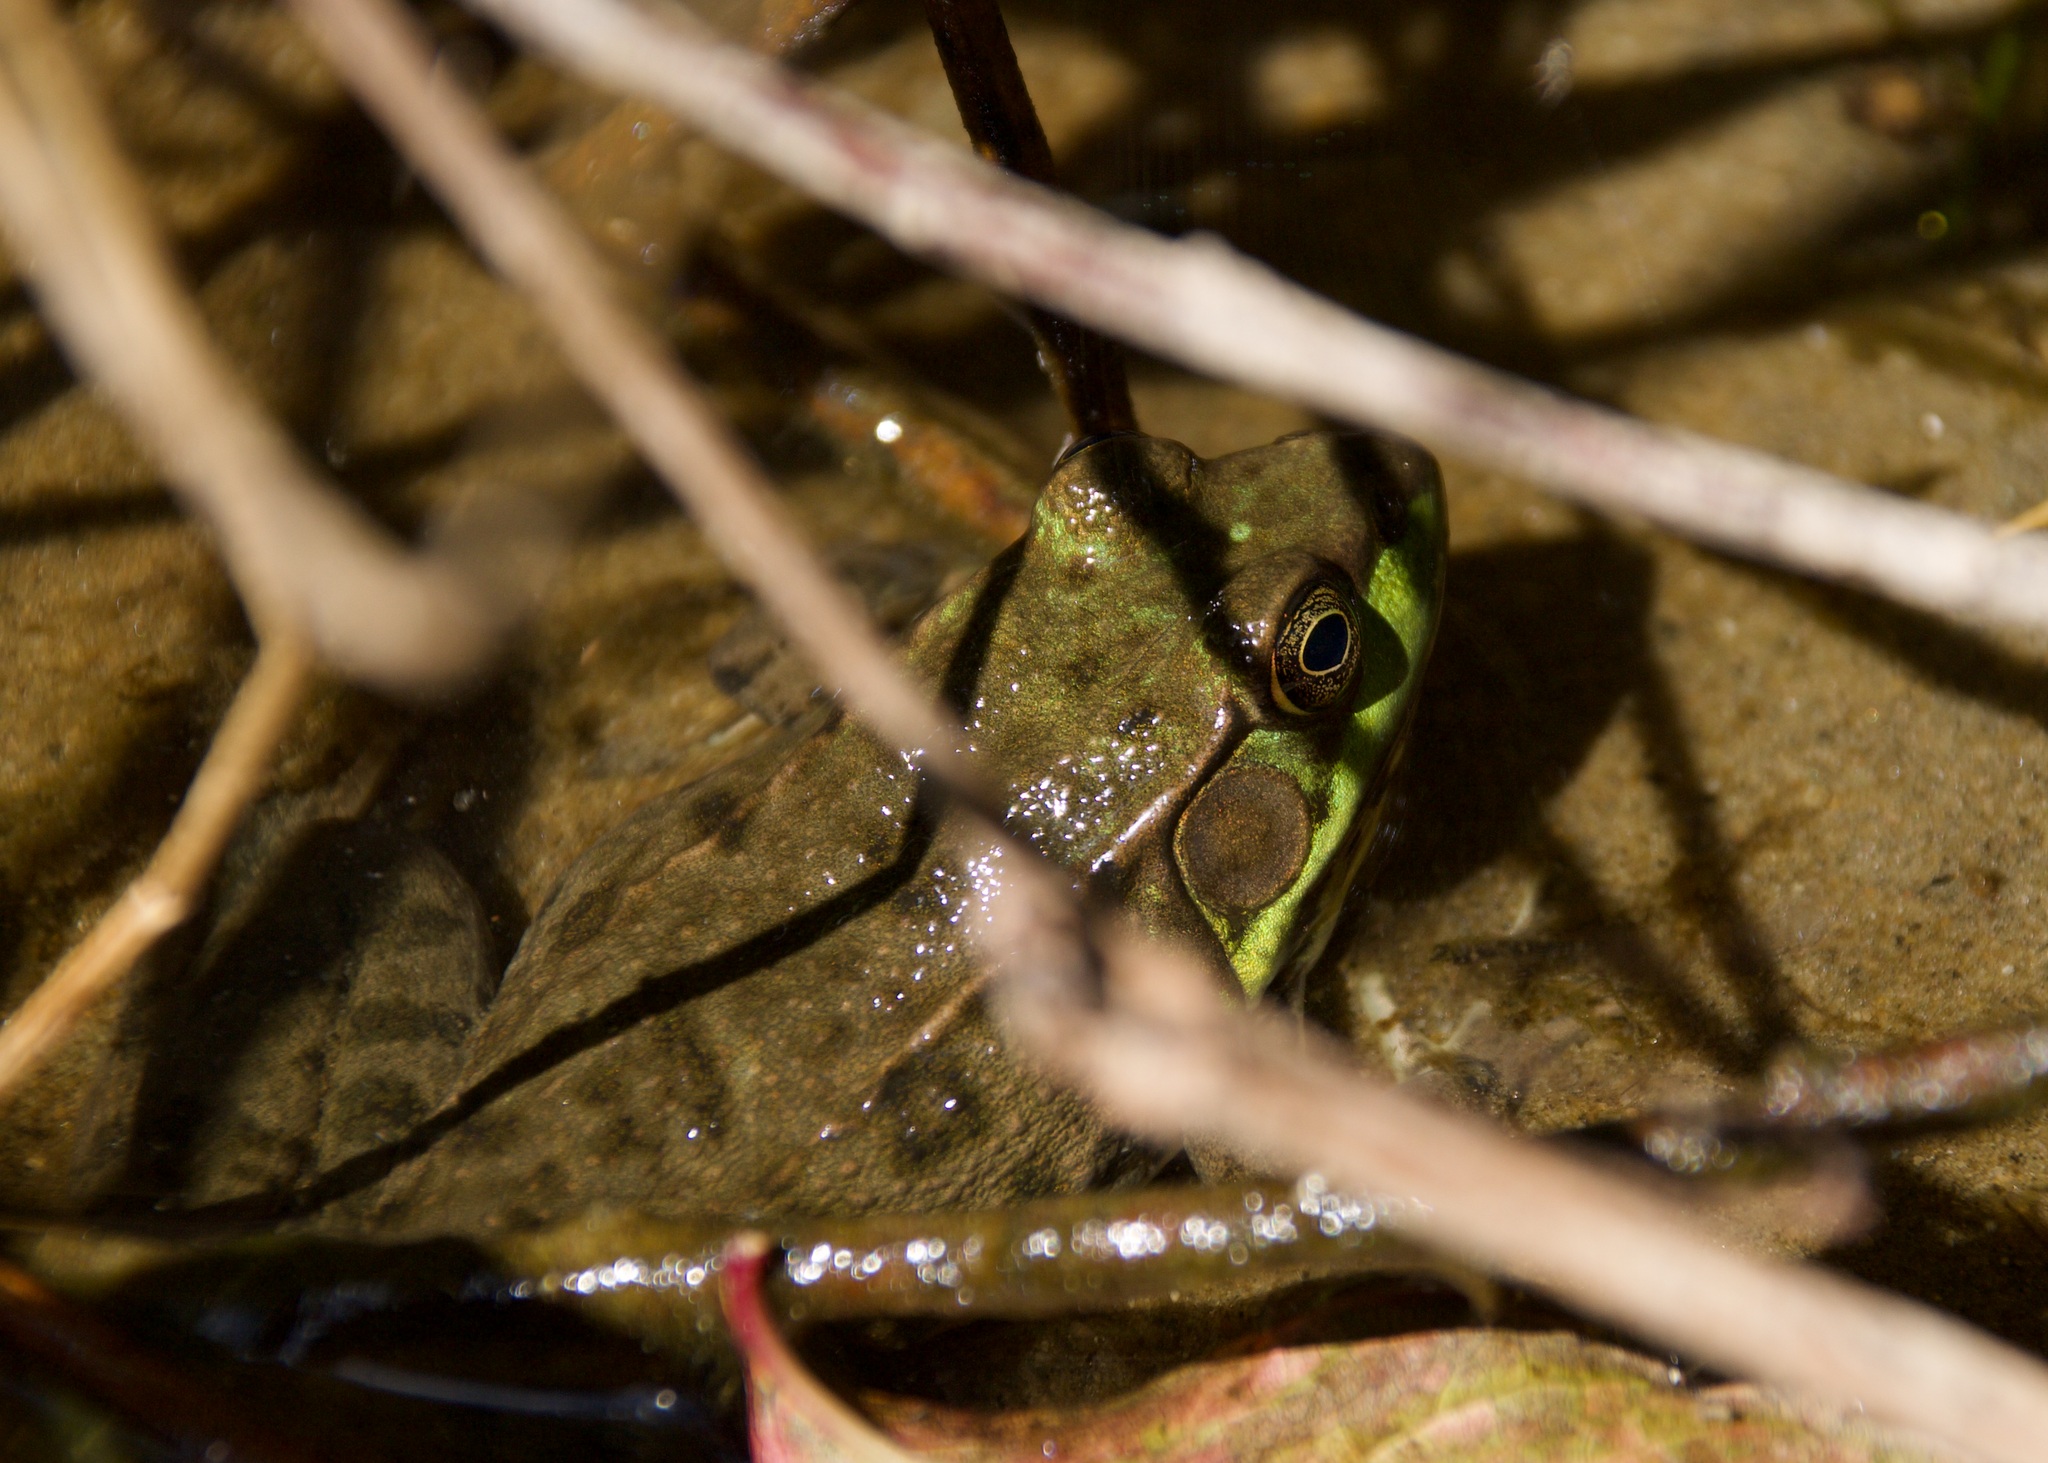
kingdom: Animalia
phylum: Chordata
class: Amphibia
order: Anura
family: Ranidae
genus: Lithobates
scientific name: Lithobates clamitans
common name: Green frog
